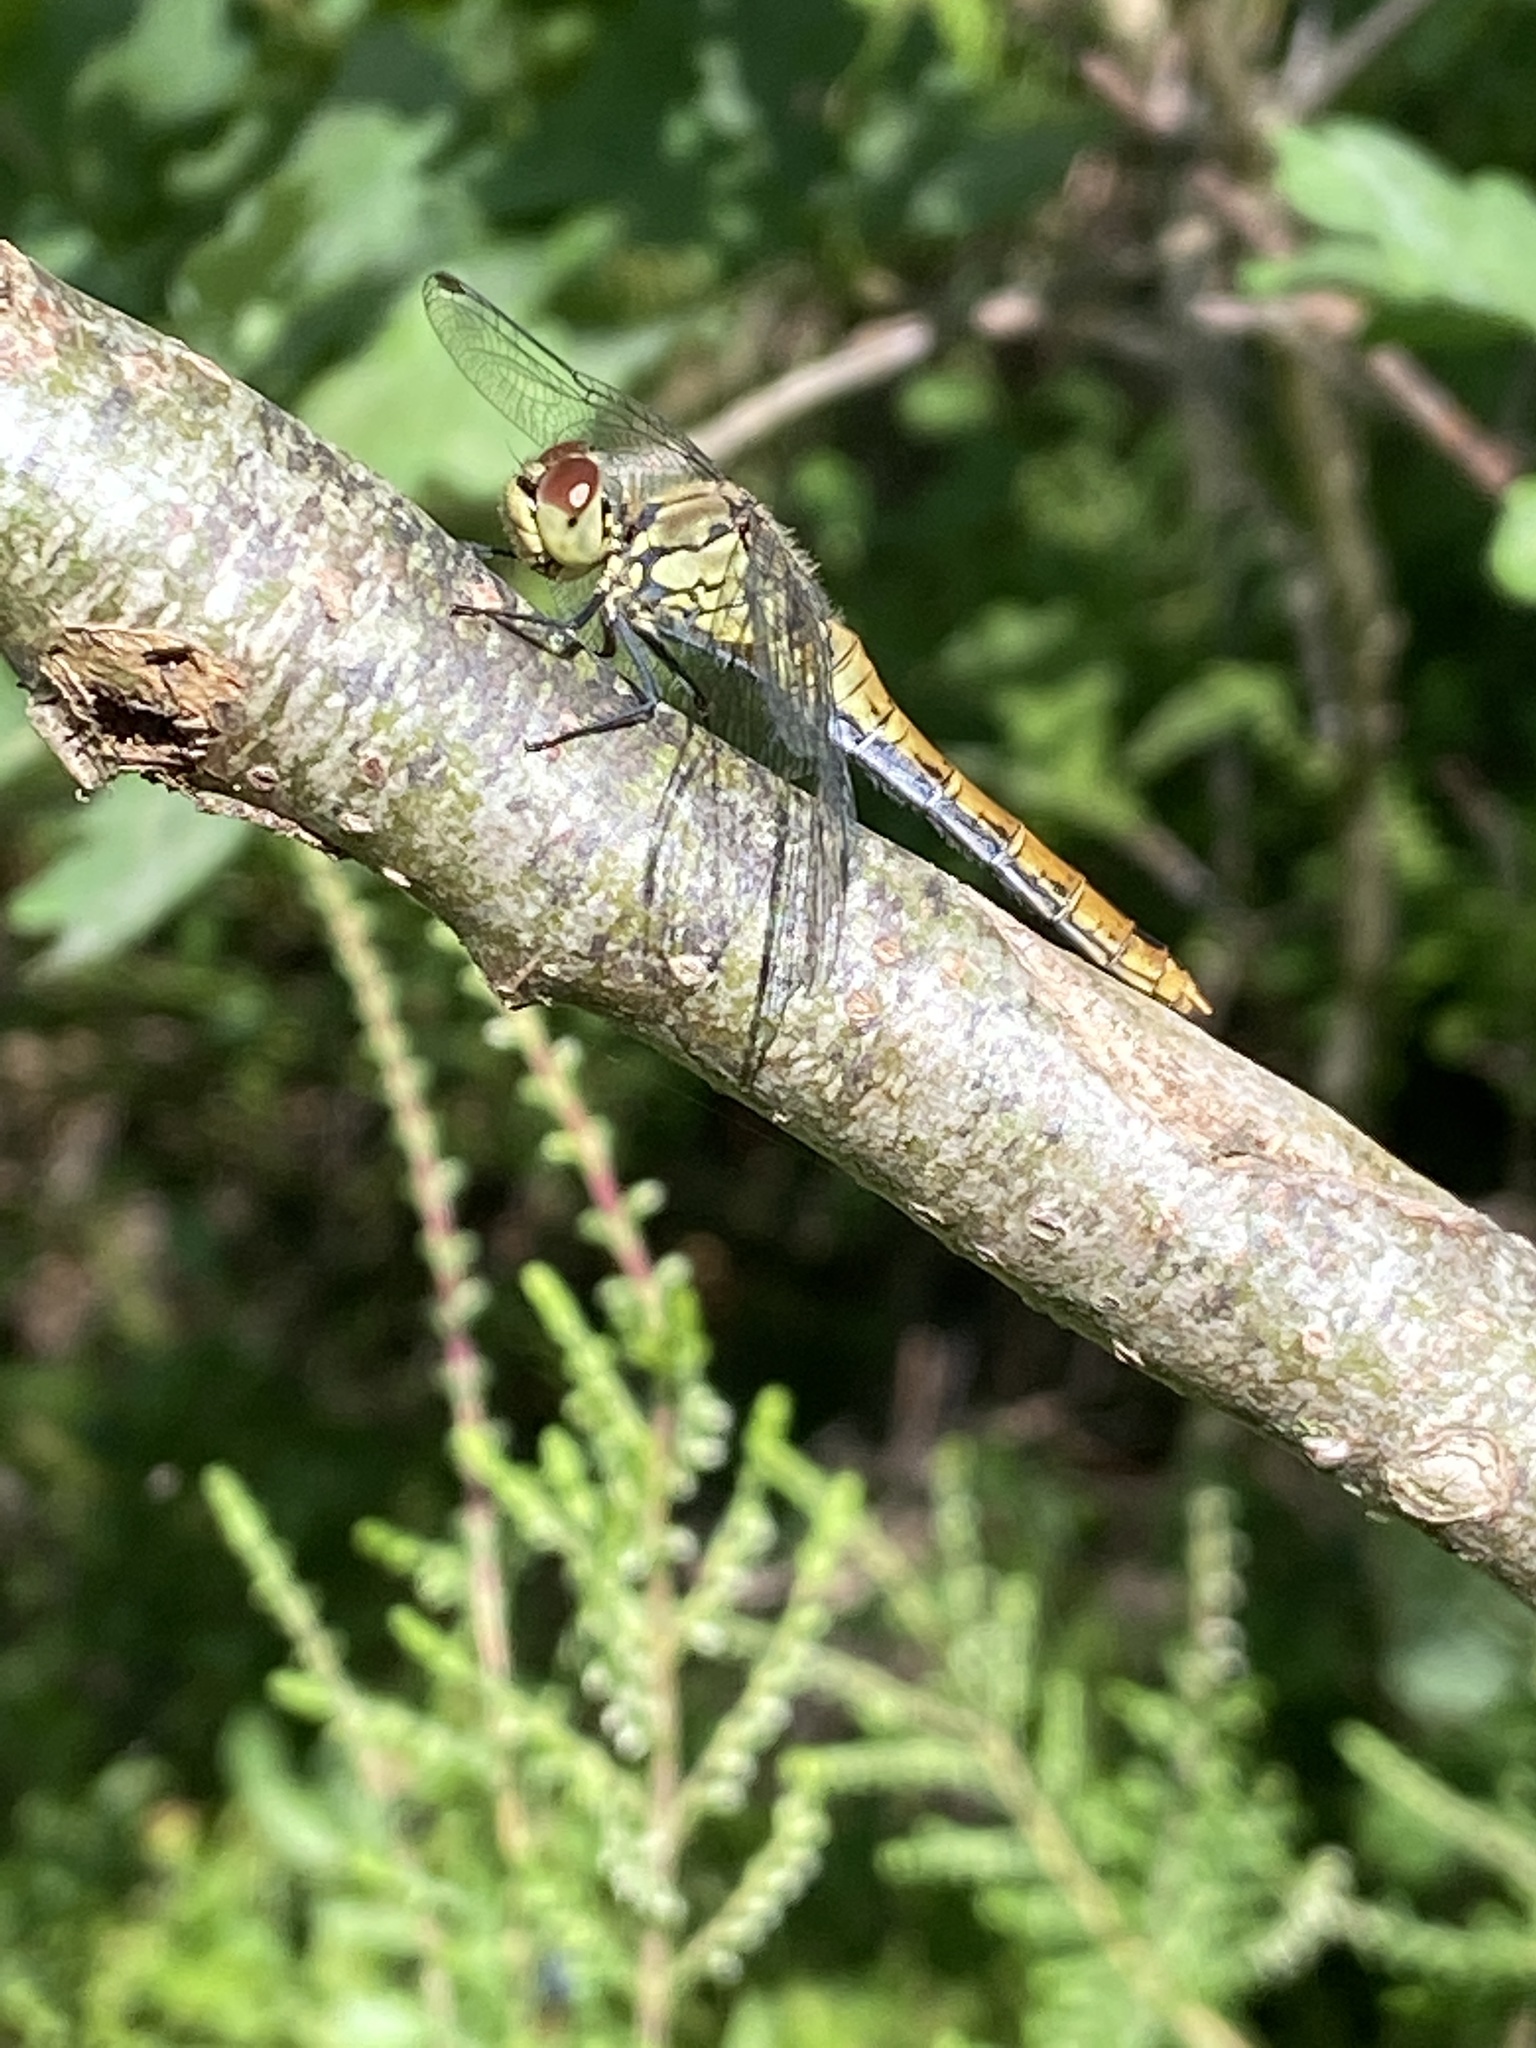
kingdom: Animalia
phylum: Arthropoda
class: Insecta
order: Odonata
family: Libellulidae
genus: Sympetrum
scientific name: Sympetrum sanguineum
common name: Ruddy darter
